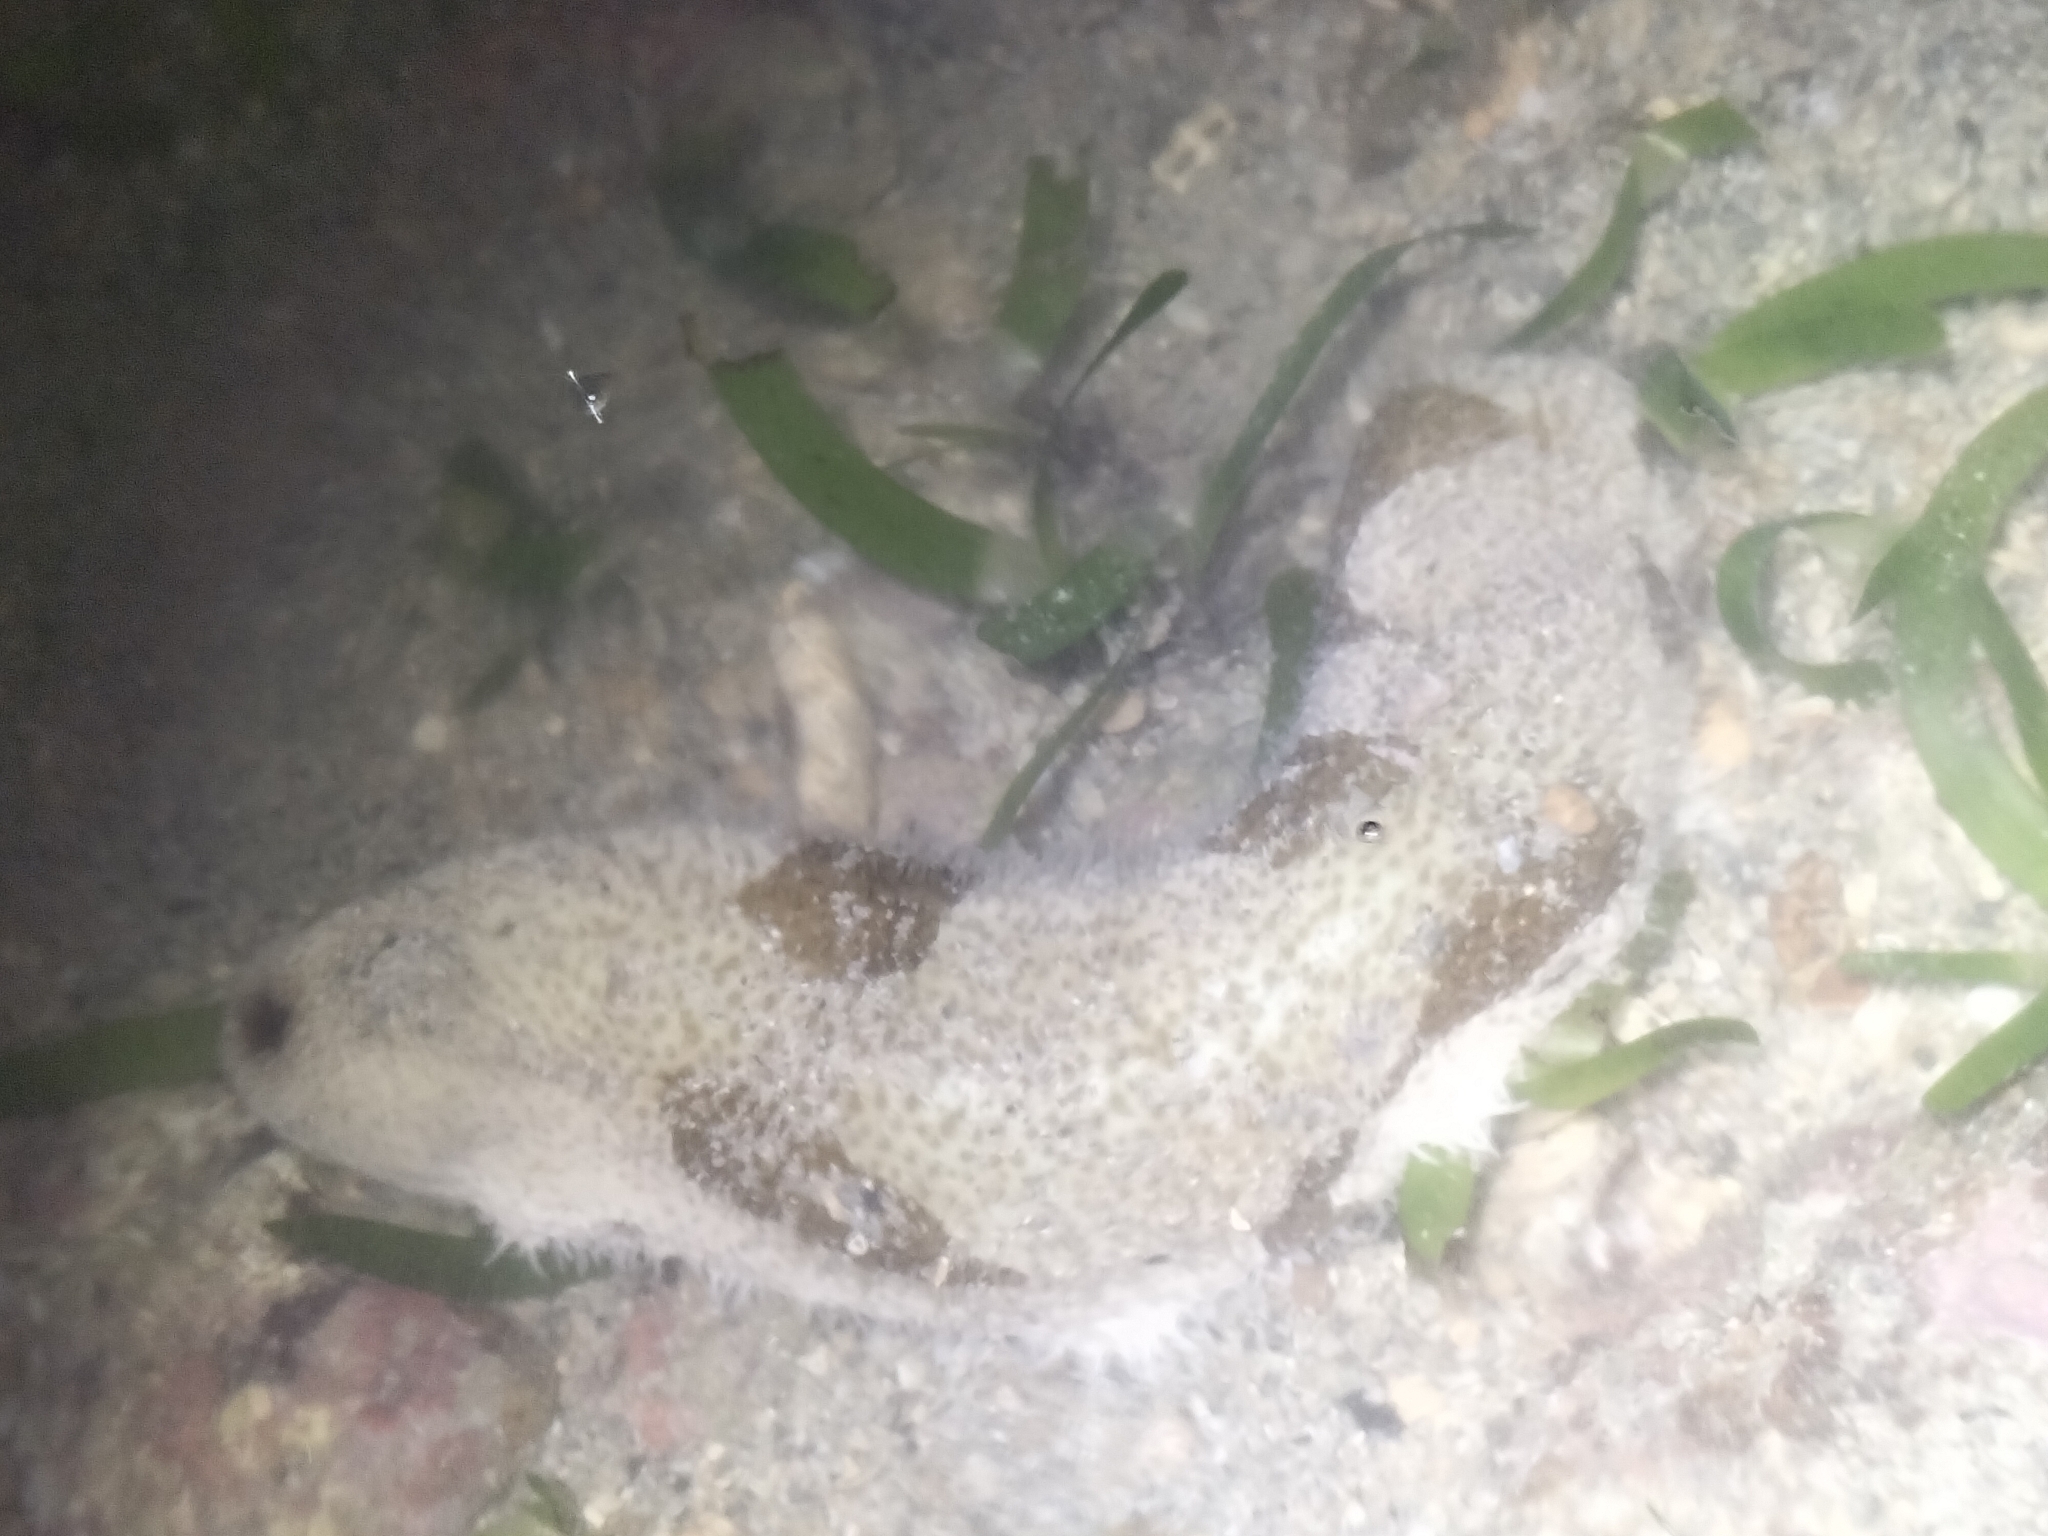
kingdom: Animalia
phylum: Echinodermata
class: Holothuroidea
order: Holothuriida
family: Holothuriidae
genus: Bohadschia
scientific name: Bohadschia marmorata
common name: Brown sandfish
